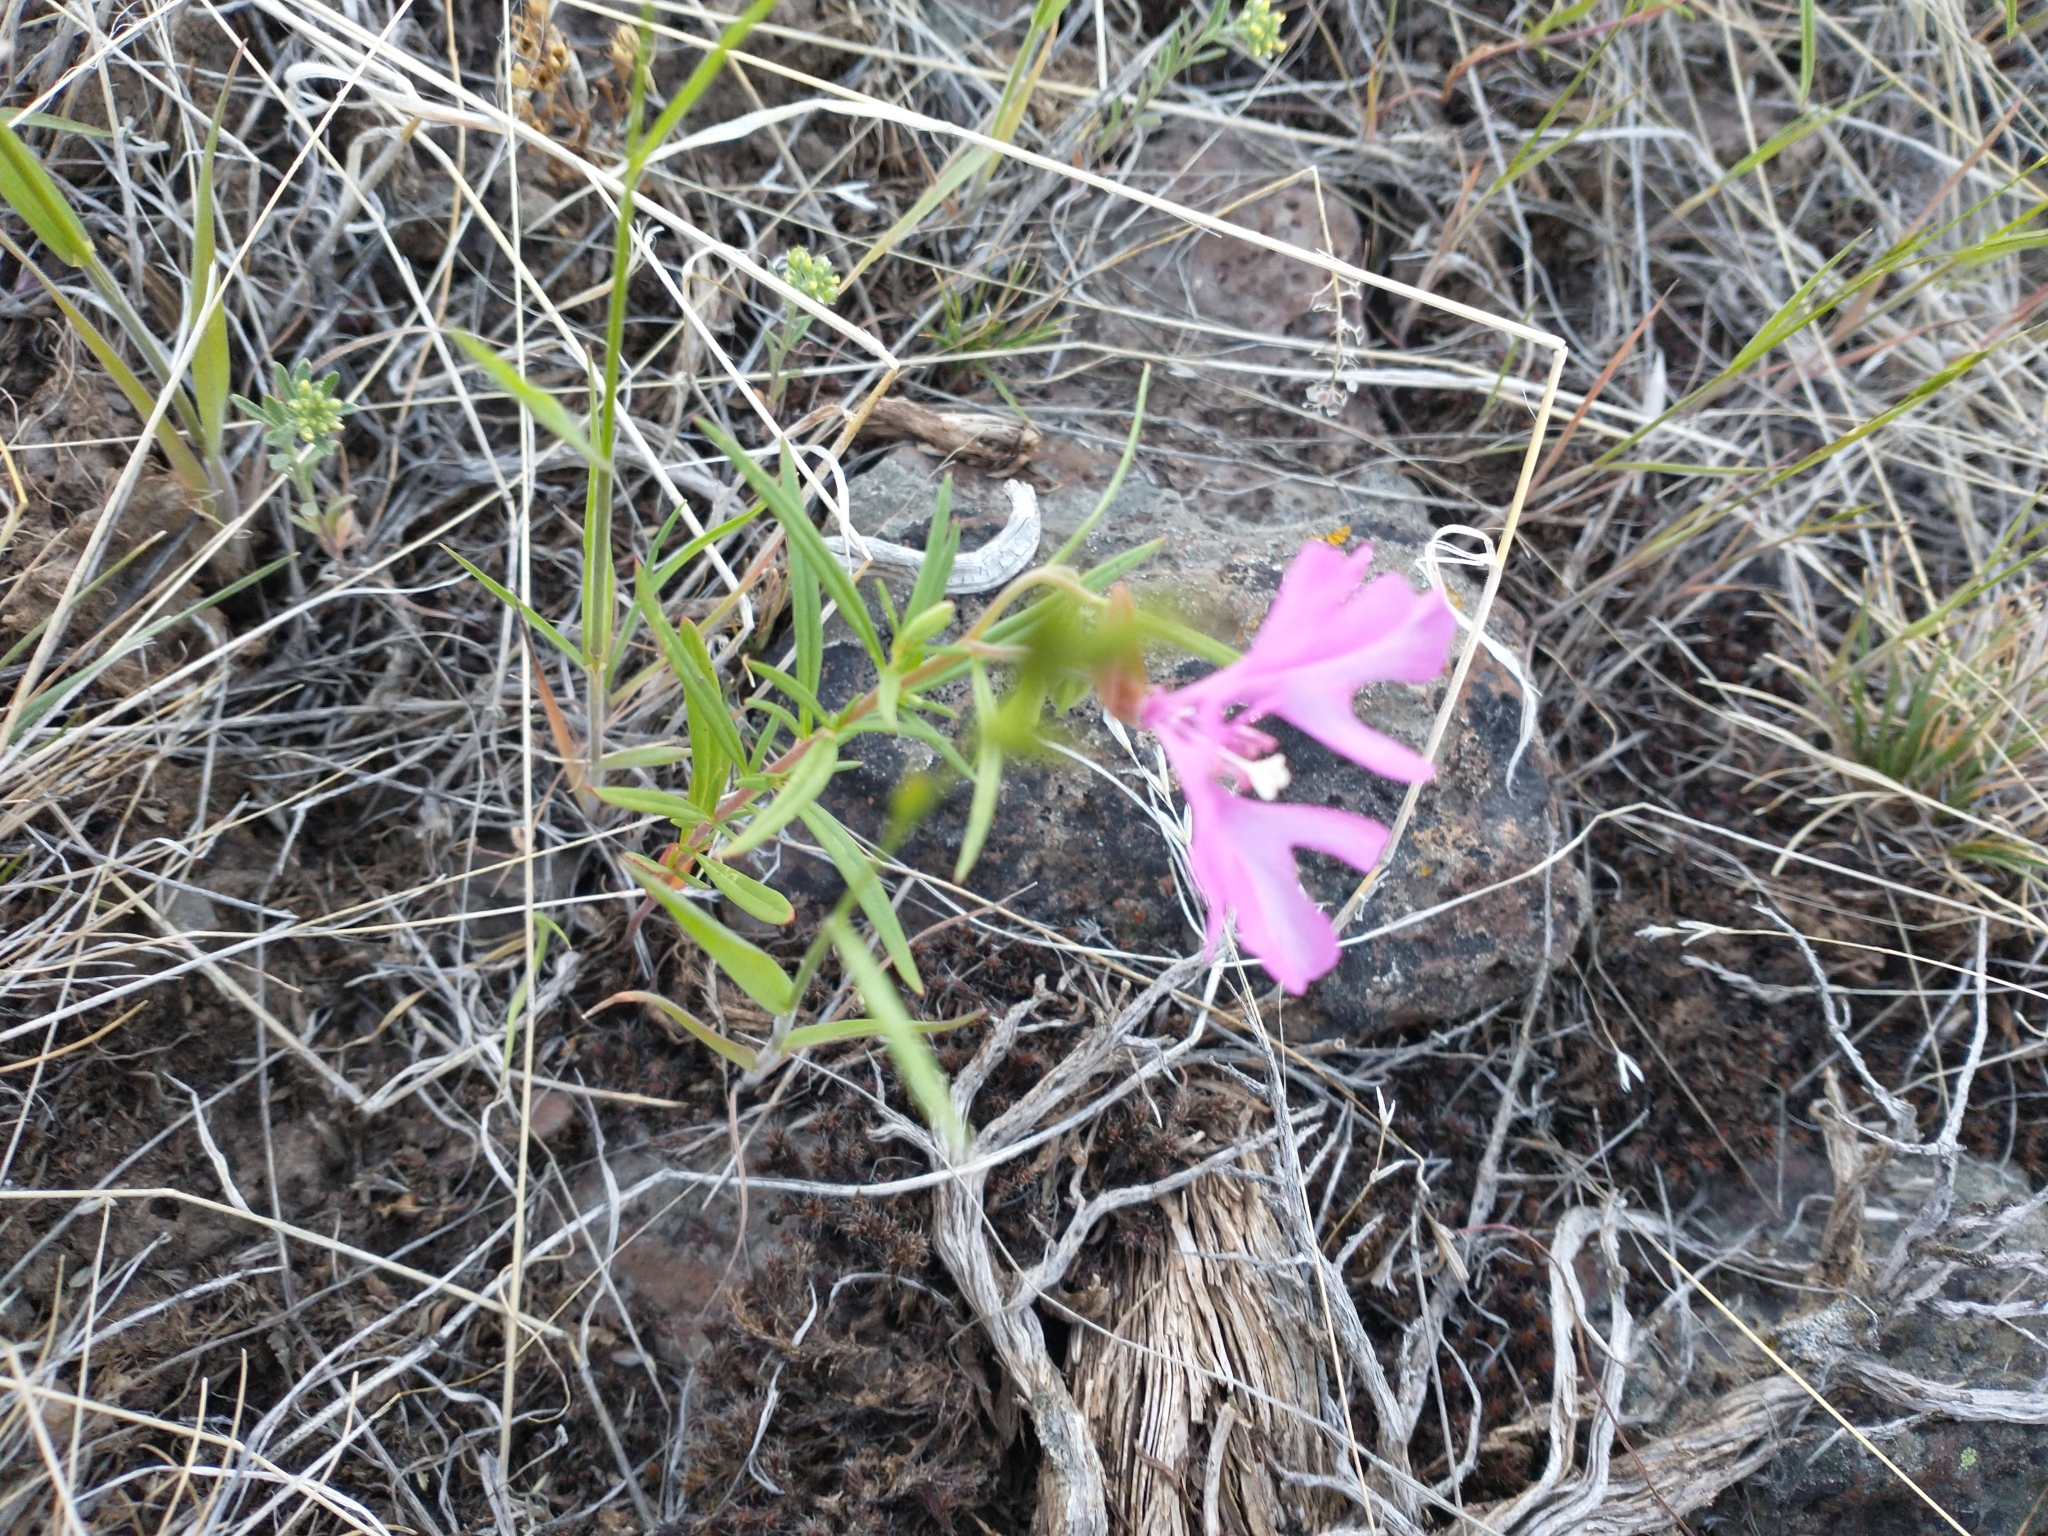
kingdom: Plantae
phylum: Tracheophyta
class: Magnoliopsida
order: Myrtales
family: Onagraceae
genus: Clarkia
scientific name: Clarkia pulchella
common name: Deer horn
